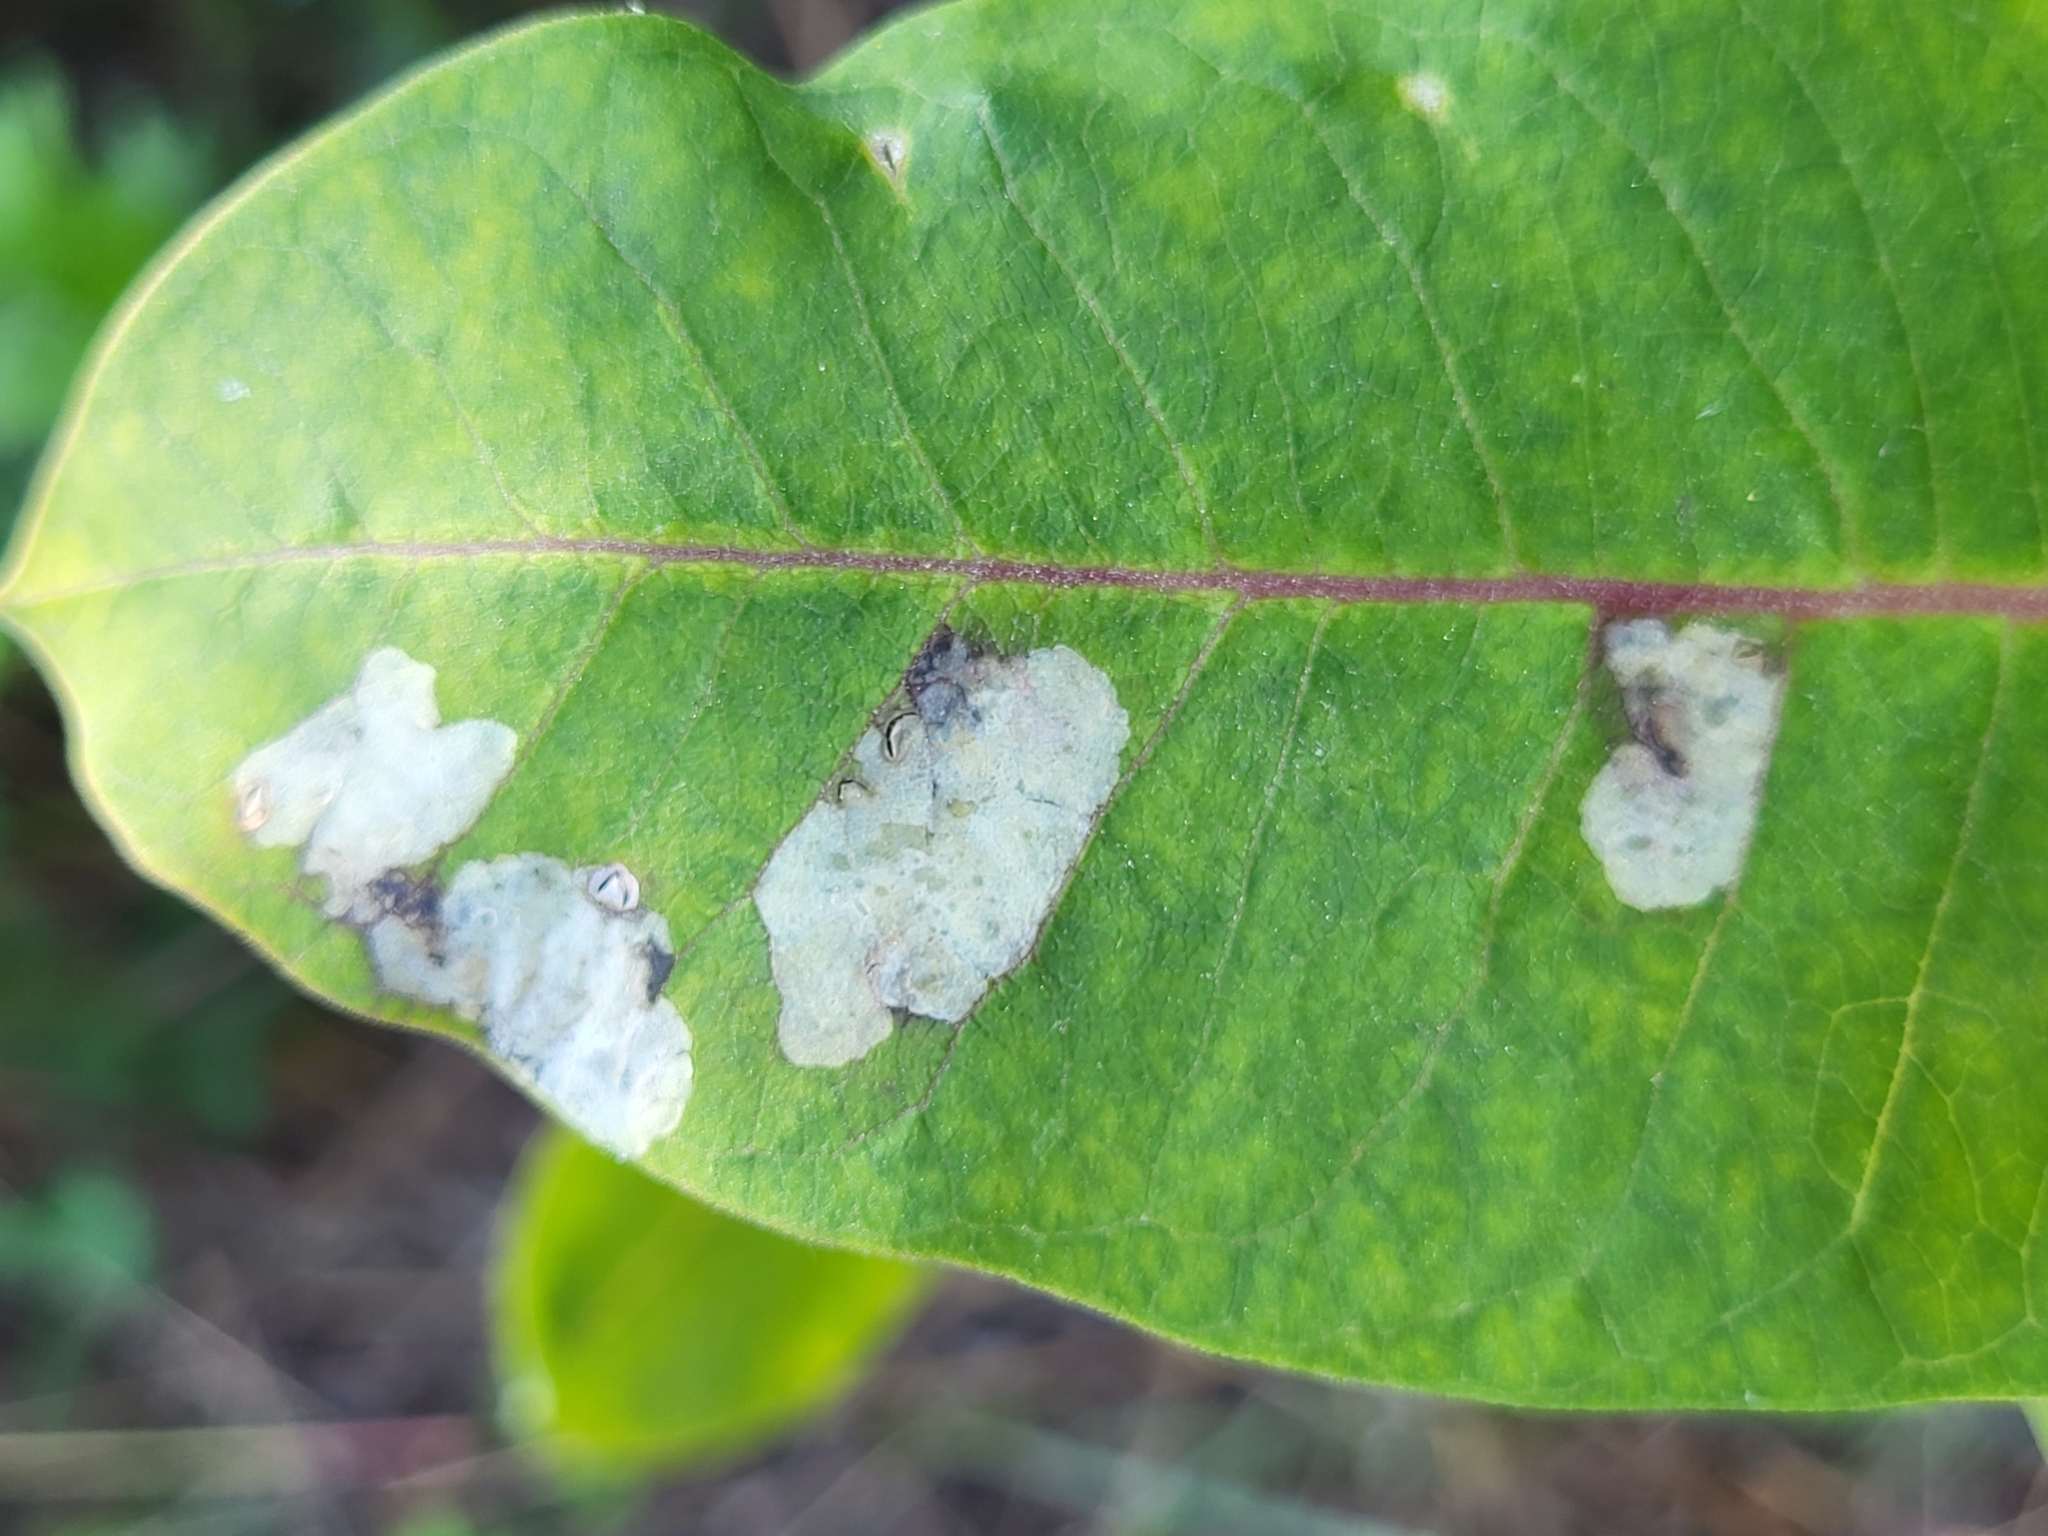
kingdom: Animalia
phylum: Arthropoda
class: Insecta
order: Diptera
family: Agromyzidae
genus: Liriomyza
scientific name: Liriomyza asclepiadis
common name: Milkweed leaf-miner fly
